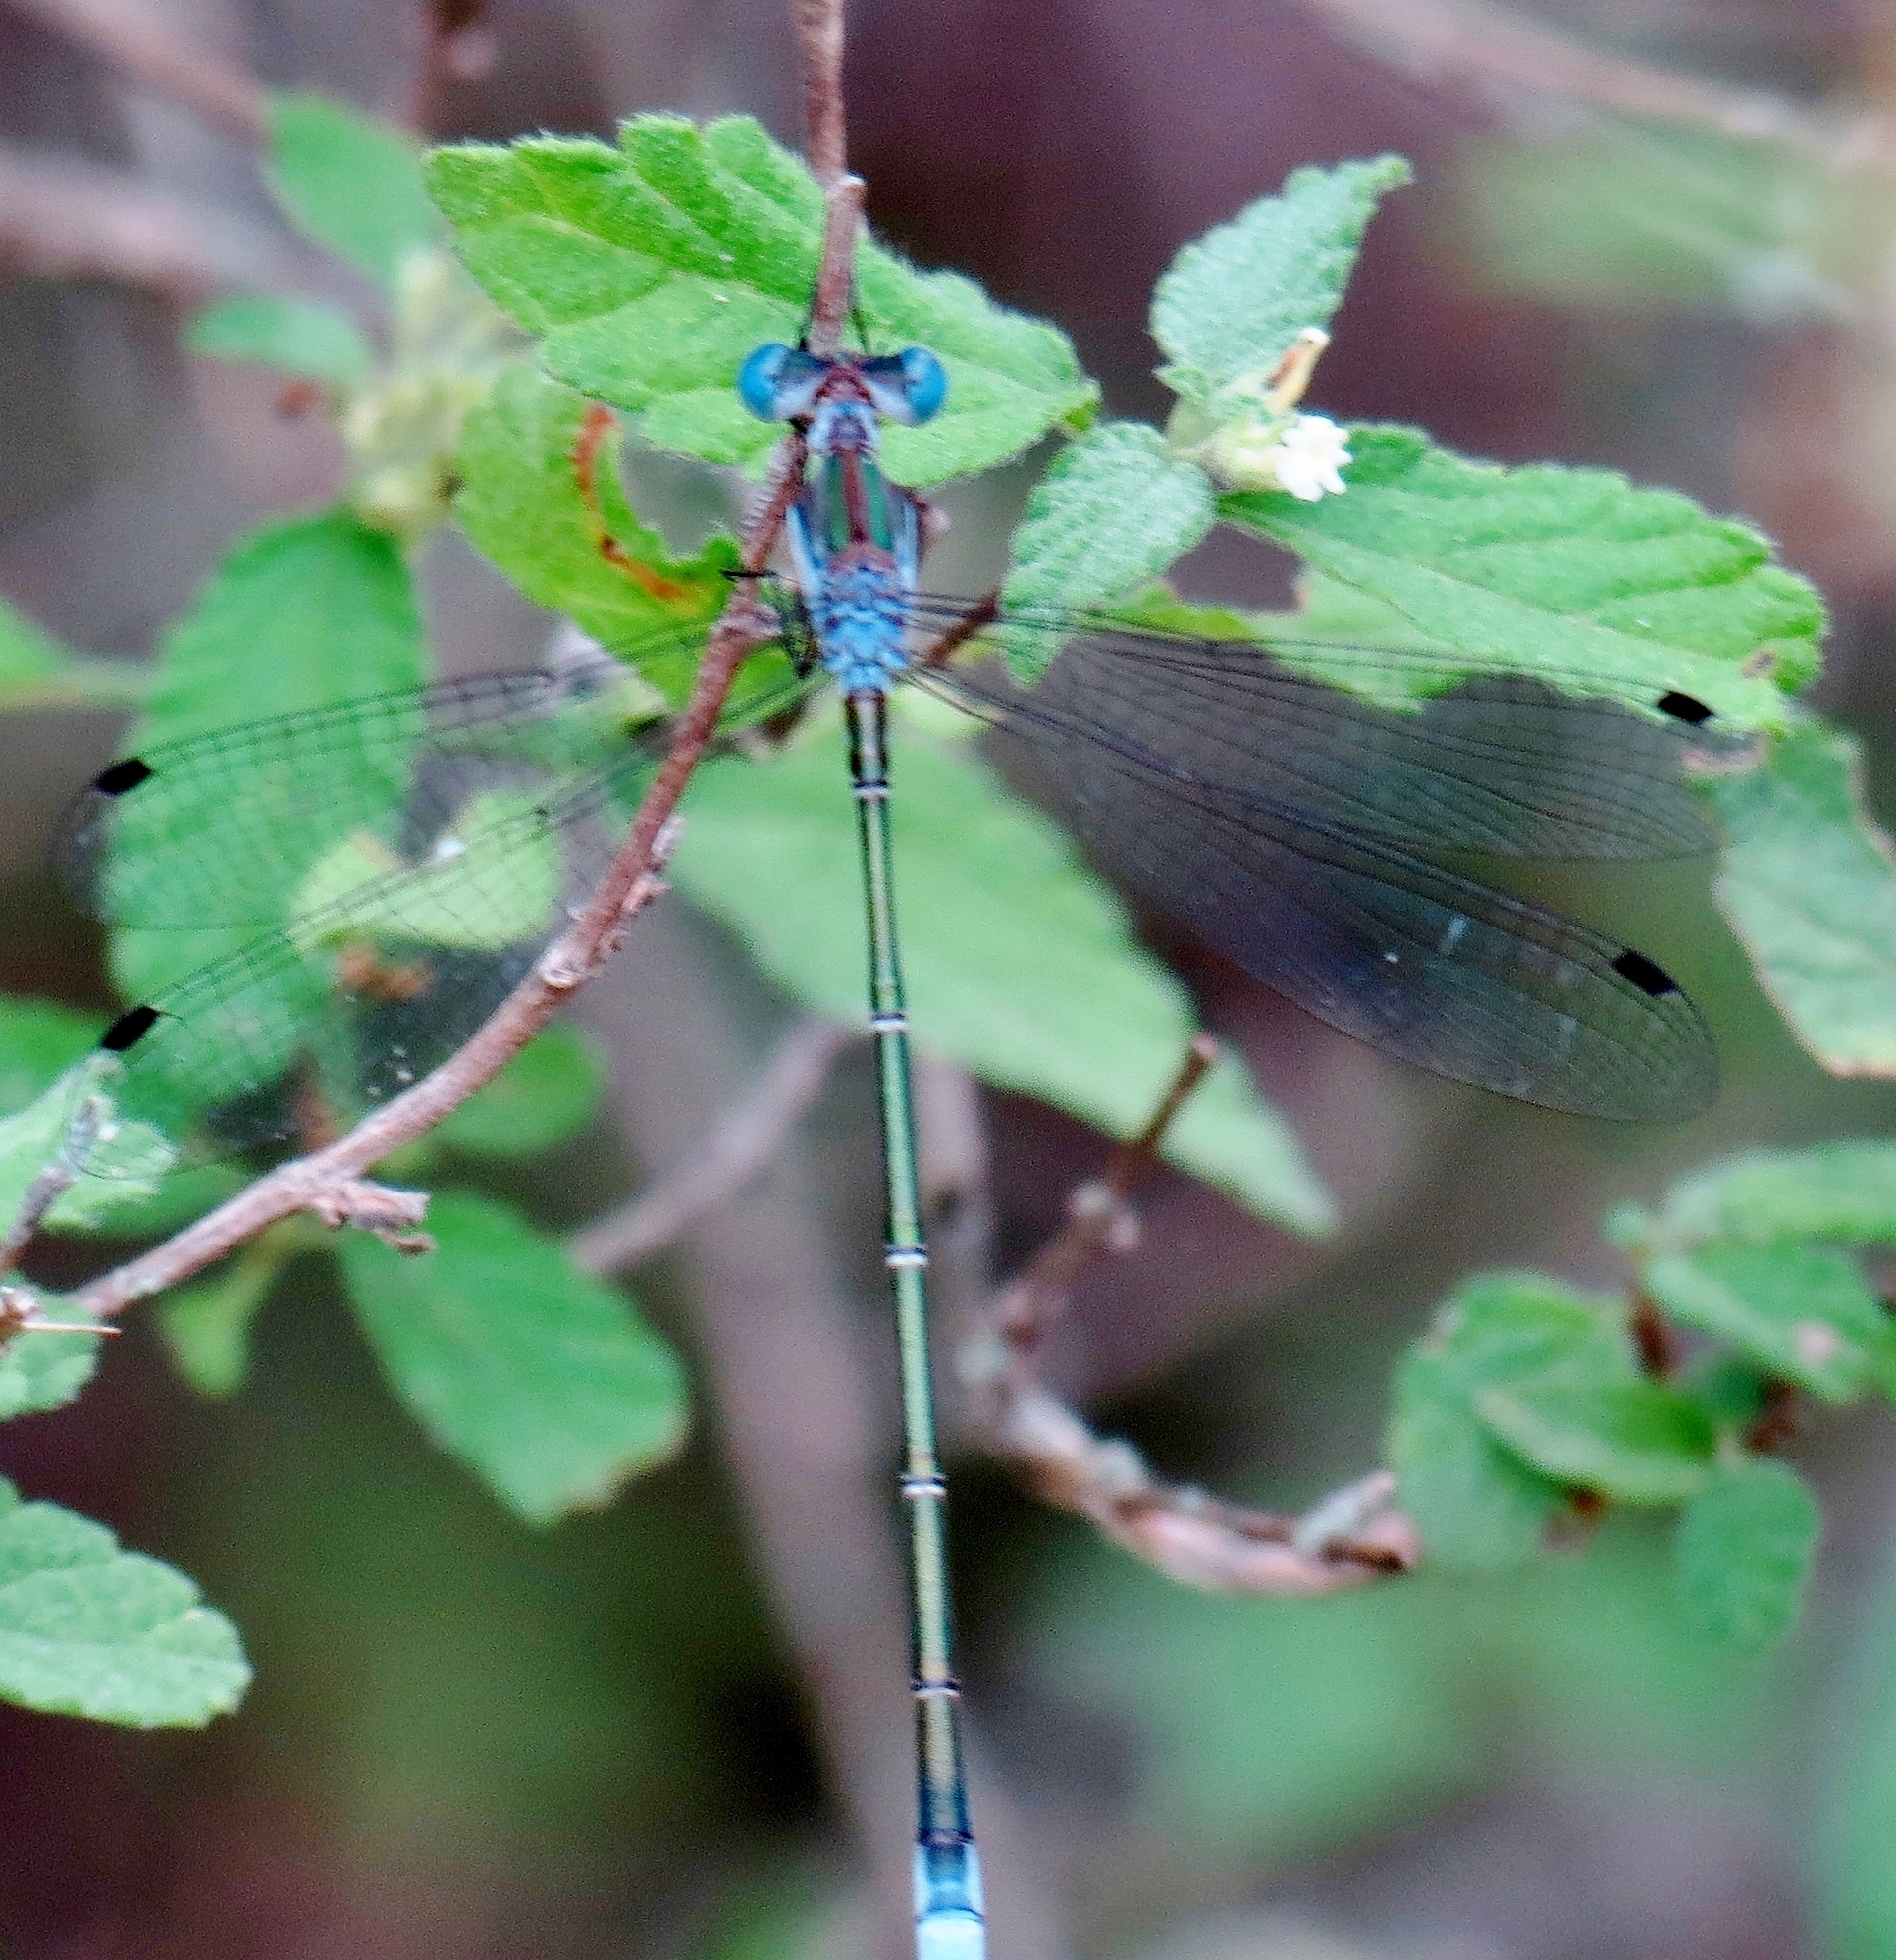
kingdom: Animalia
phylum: Arthropoda
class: Insecta
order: Odonata
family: Lestidae
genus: Lestes
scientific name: Lestes forficula
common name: Rainpool spreadwing
